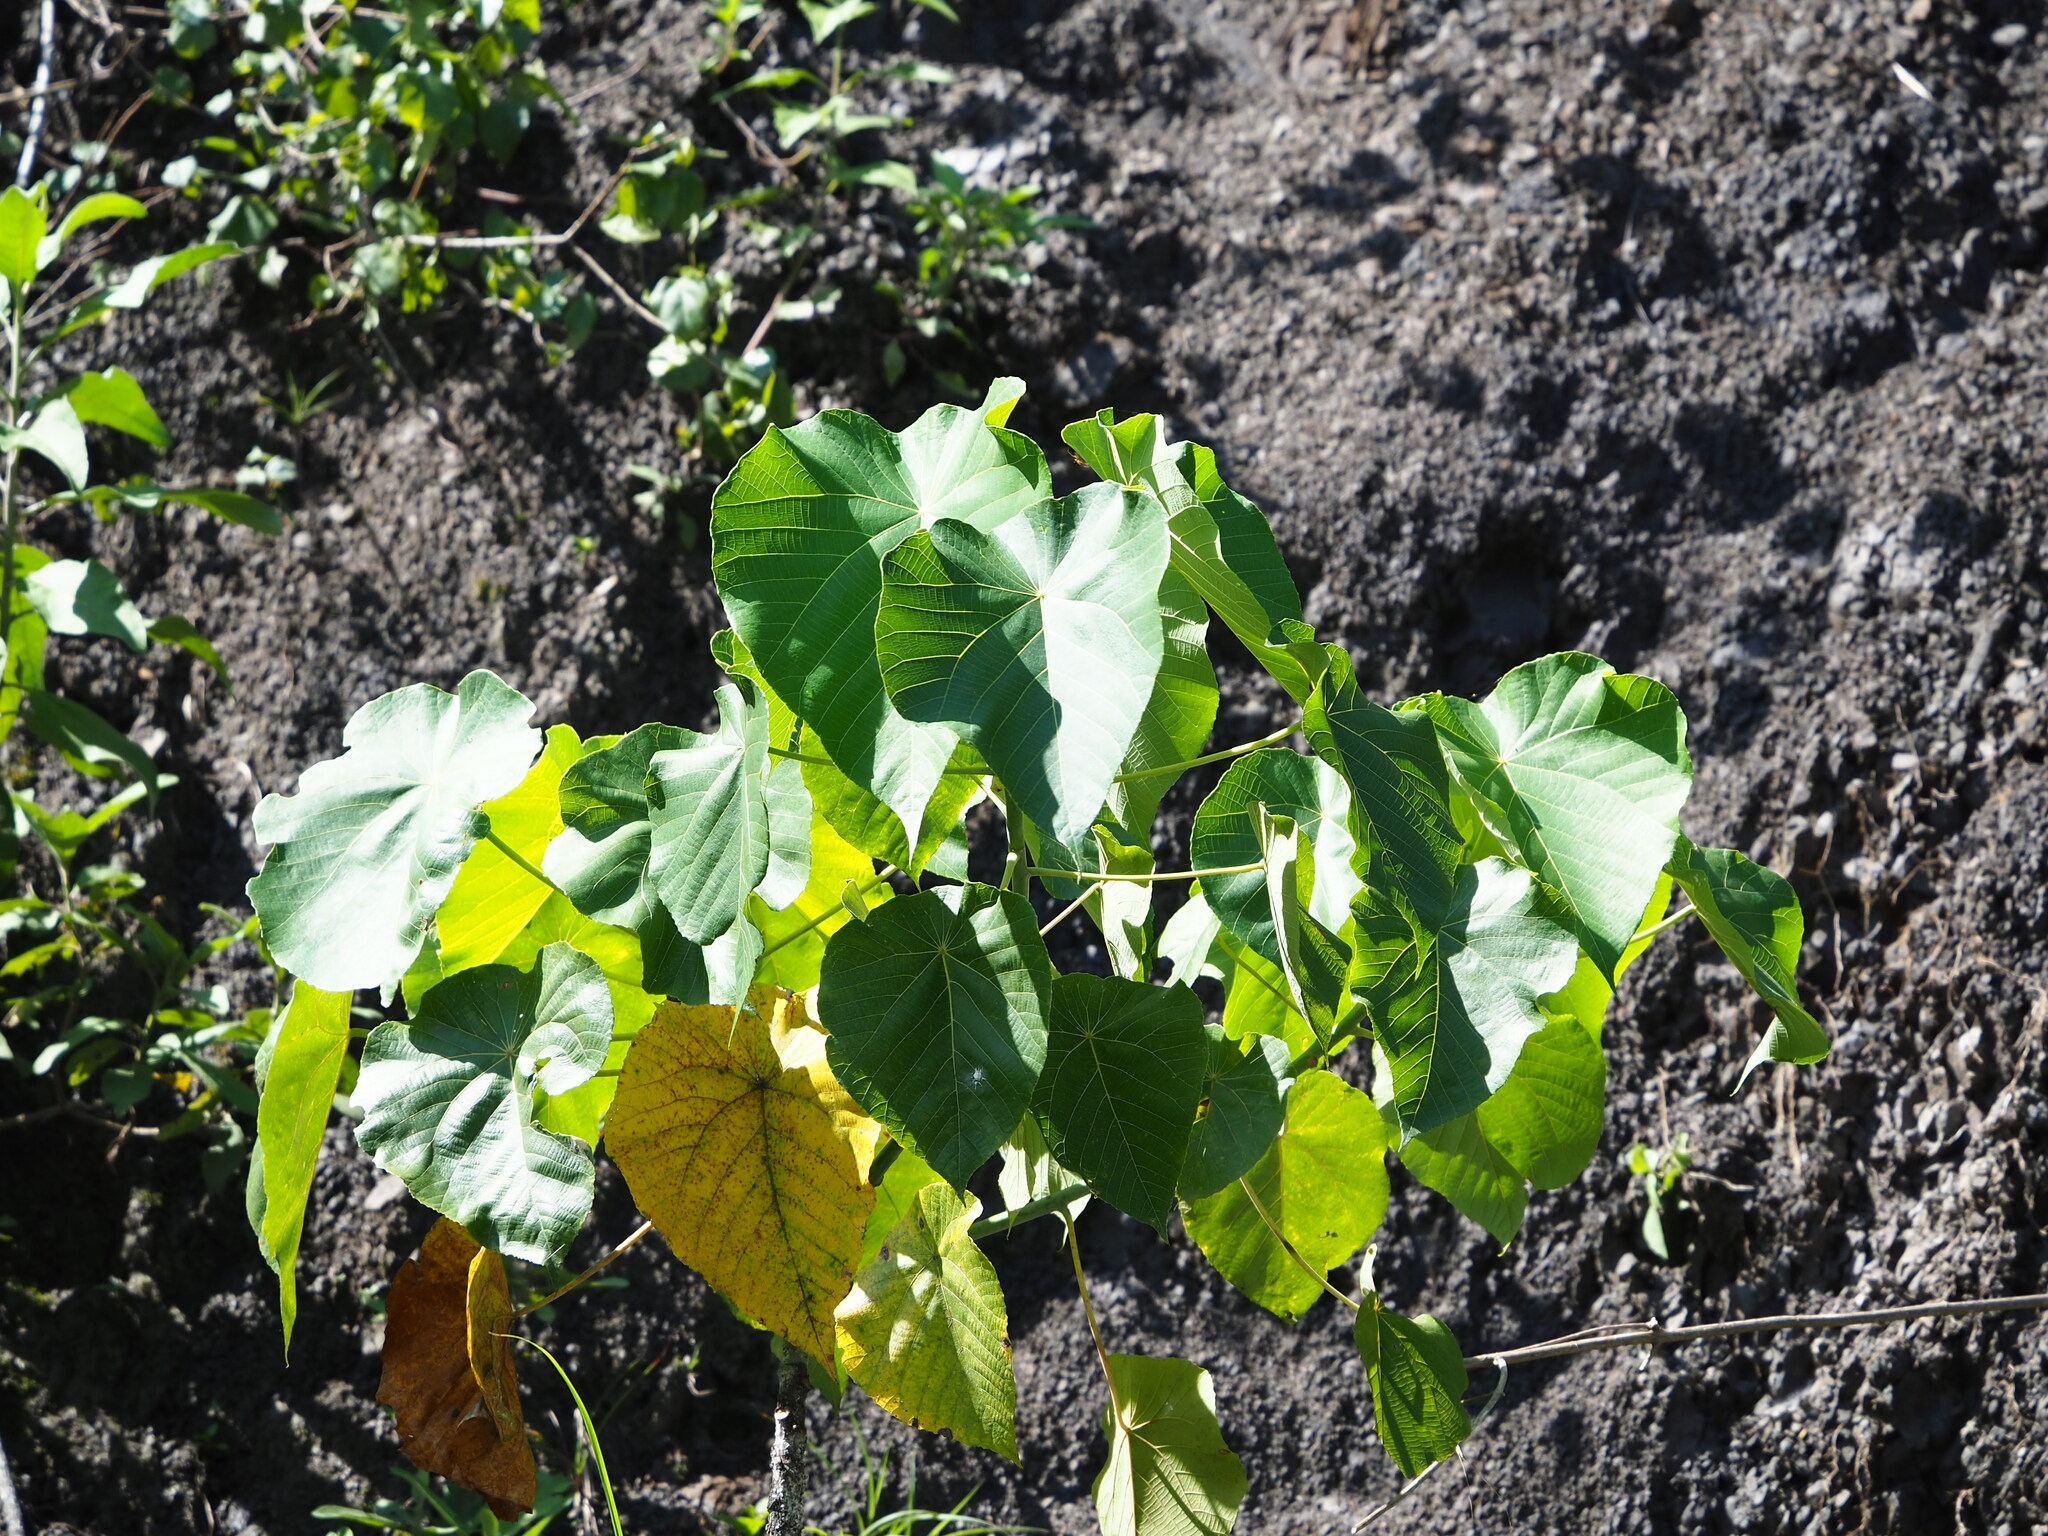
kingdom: Plantae
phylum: Tracheophyta
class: Magnoliopsida
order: Malpighiales
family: Euphorbiaceae
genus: Macaranga
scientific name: Macaranga tanarius
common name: Parasol leaf tree
